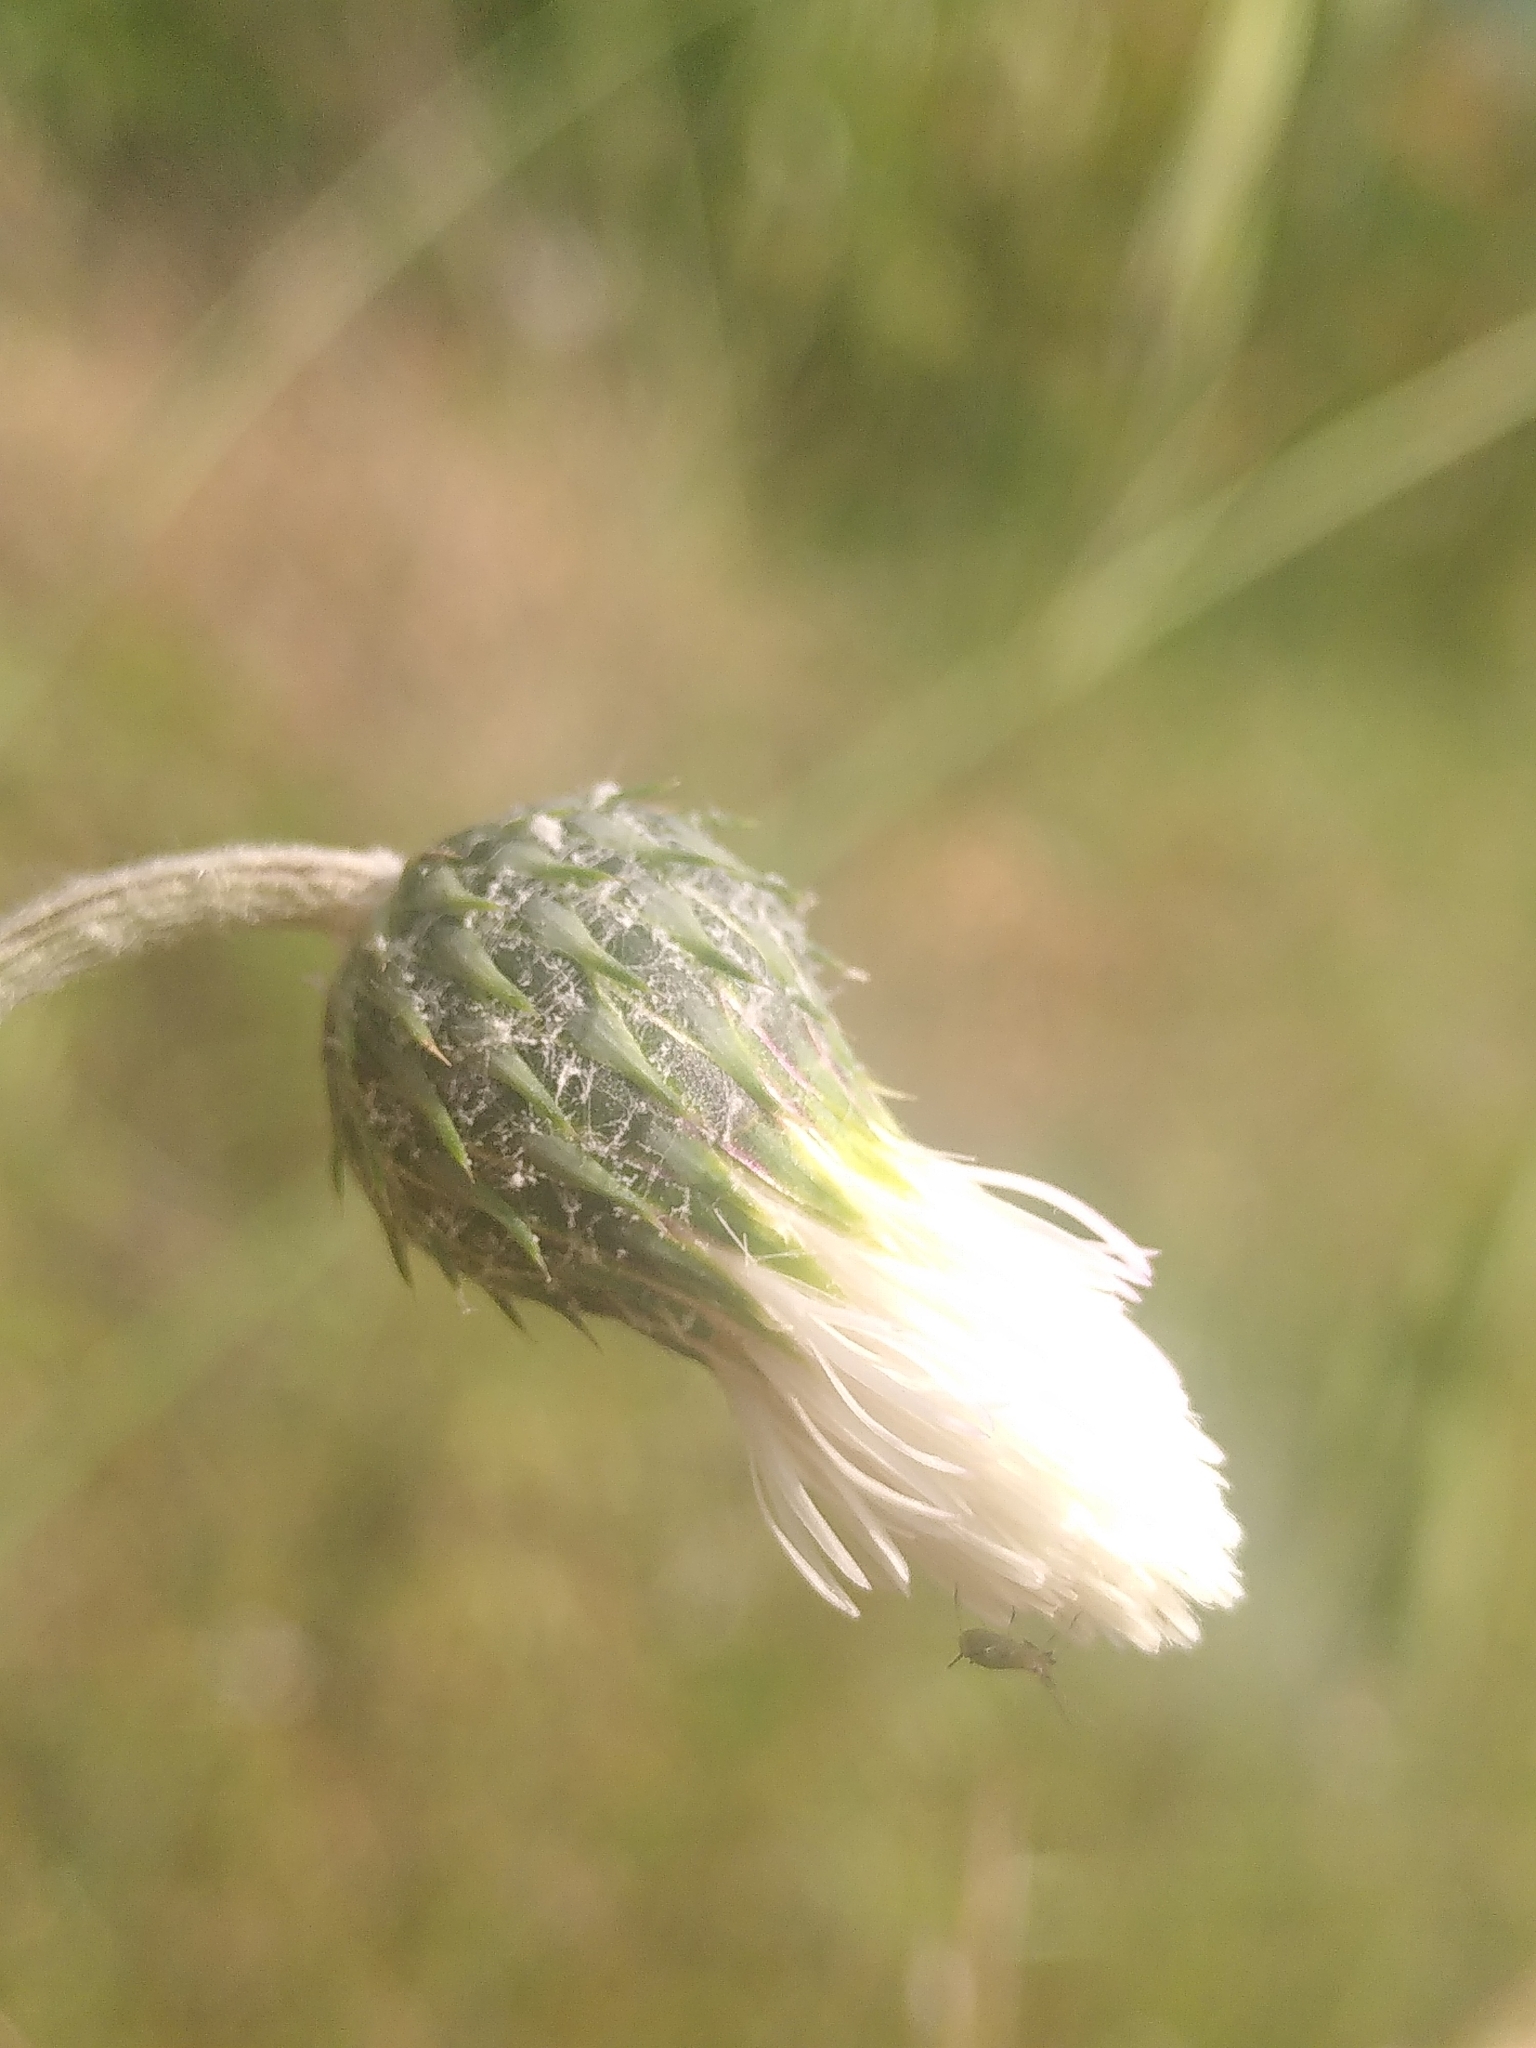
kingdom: Plantae
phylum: Tracheophyta
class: Magnoliopsida
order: Asterales
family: Asteraceae
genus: Tyrimnus
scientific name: Tyrimnus leucographus
